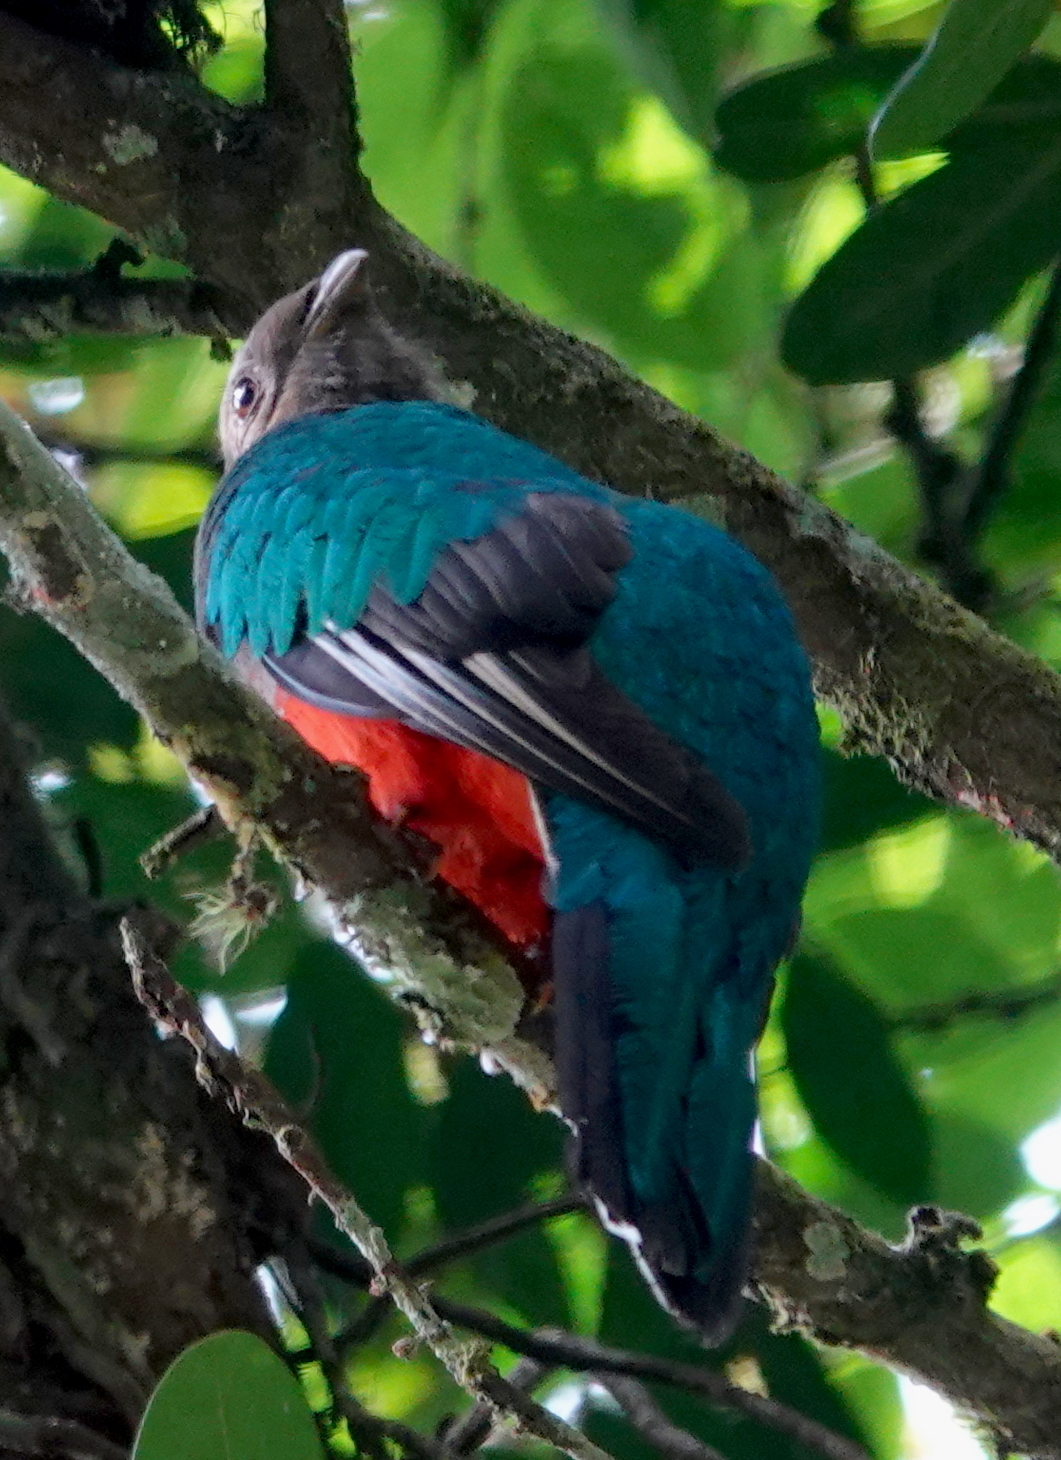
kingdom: Animalia
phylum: Chordata
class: Aves
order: Trogoniformes
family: Trogonidae
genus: Pharomachrus
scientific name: Pharomachrus fulgidus
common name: White-tipped quetzal
